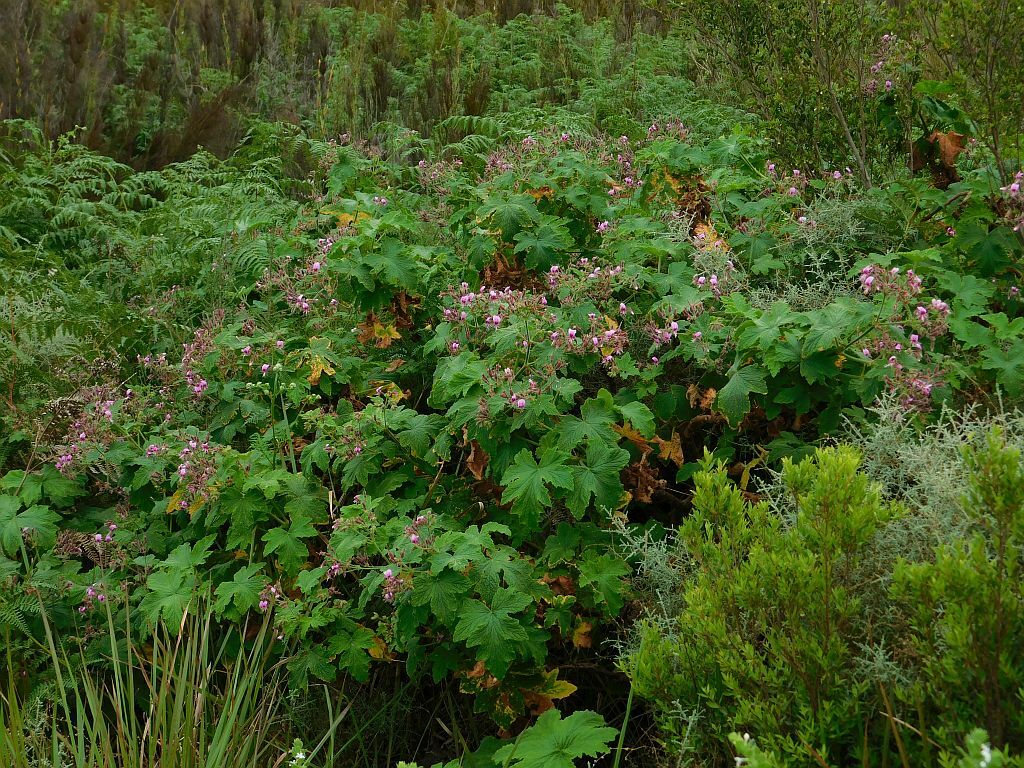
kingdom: Plantae
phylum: Tracheophyta
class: Magnoliopsida
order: Geraniales
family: Geraniaceae
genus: Pelargonium
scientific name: Pelargonium hispidum
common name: Hispid pelargonium
